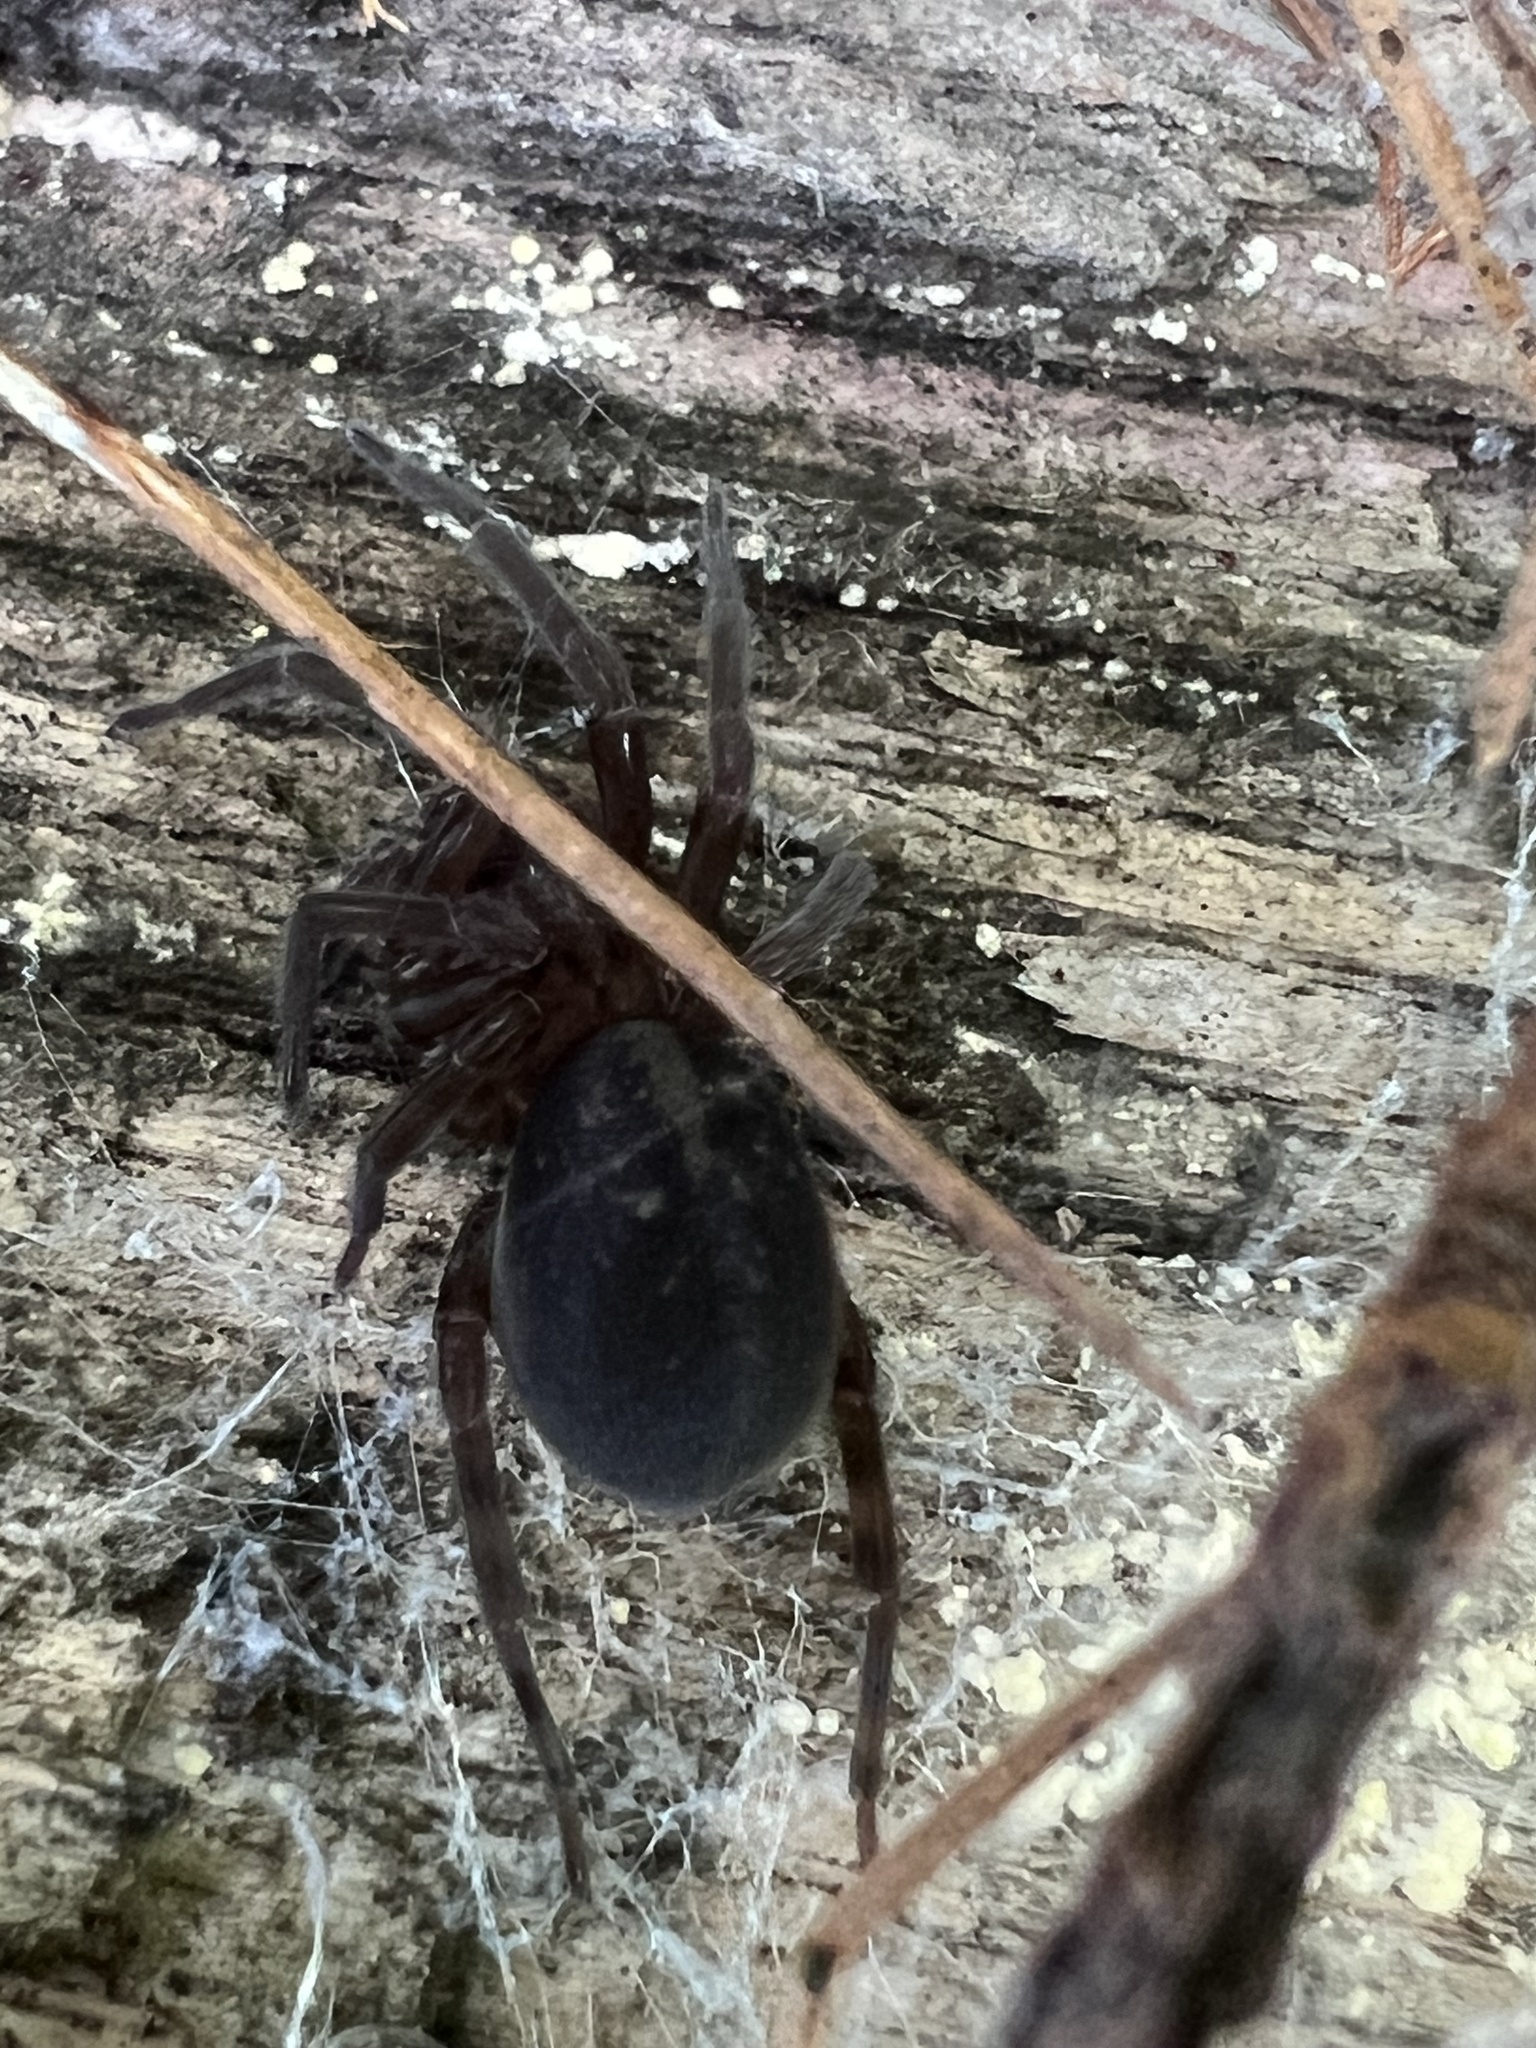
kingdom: Animalia
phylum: Arthropoda
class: Arachnida
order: Araneae
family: Amaurobiidae
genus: Amaurobius
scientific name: Amaurobius ferox
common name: Black laceweaver
